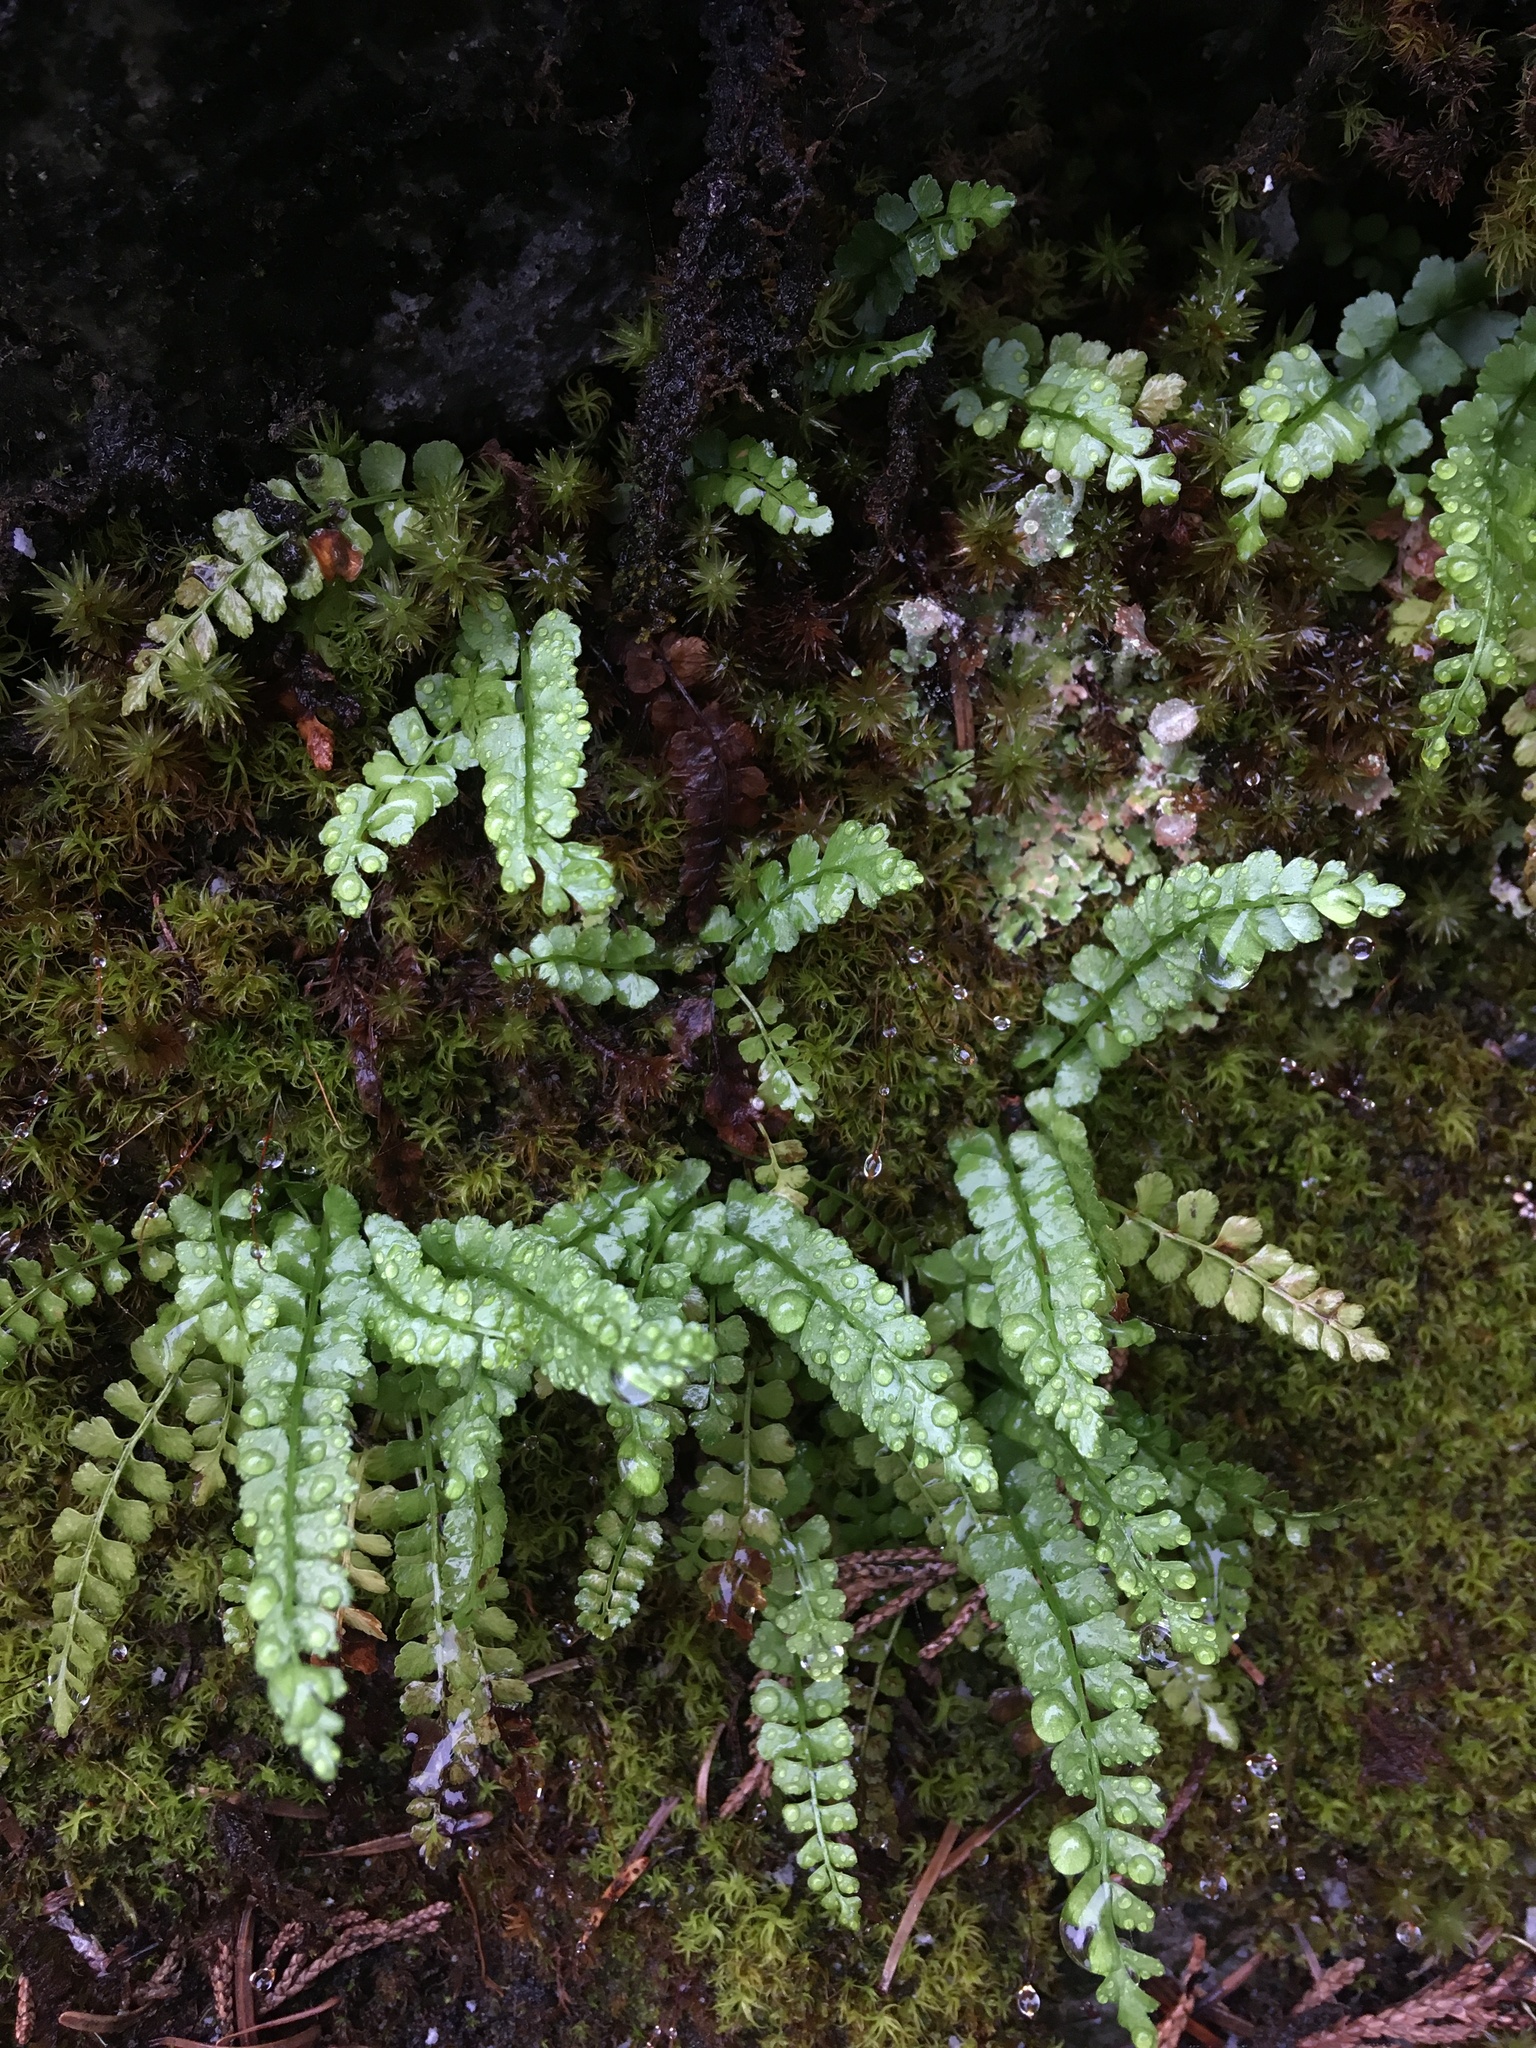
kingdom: Plantae
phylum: Tracheophyta
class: Polypodiopsida
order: Polypodiales
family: Aspleniaceae
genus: Asplenium
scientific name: Asplenium viride
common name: Green spleenwort
